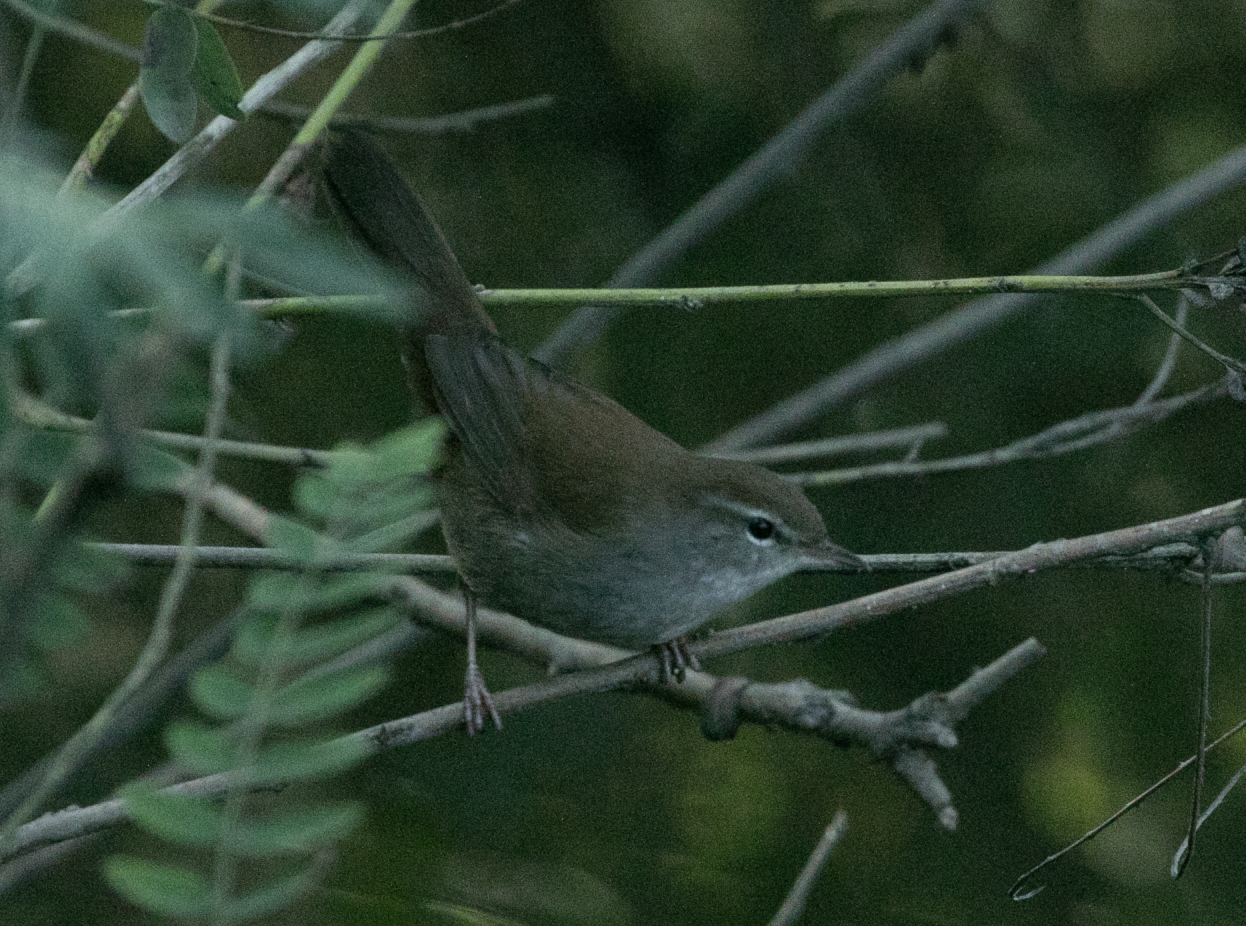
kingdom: Animalia
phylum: Chordata
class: Aves
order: Passeriformes
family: Cettiidae
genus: Cettia
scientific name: Cettia cetti
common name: Cetti's warbler
